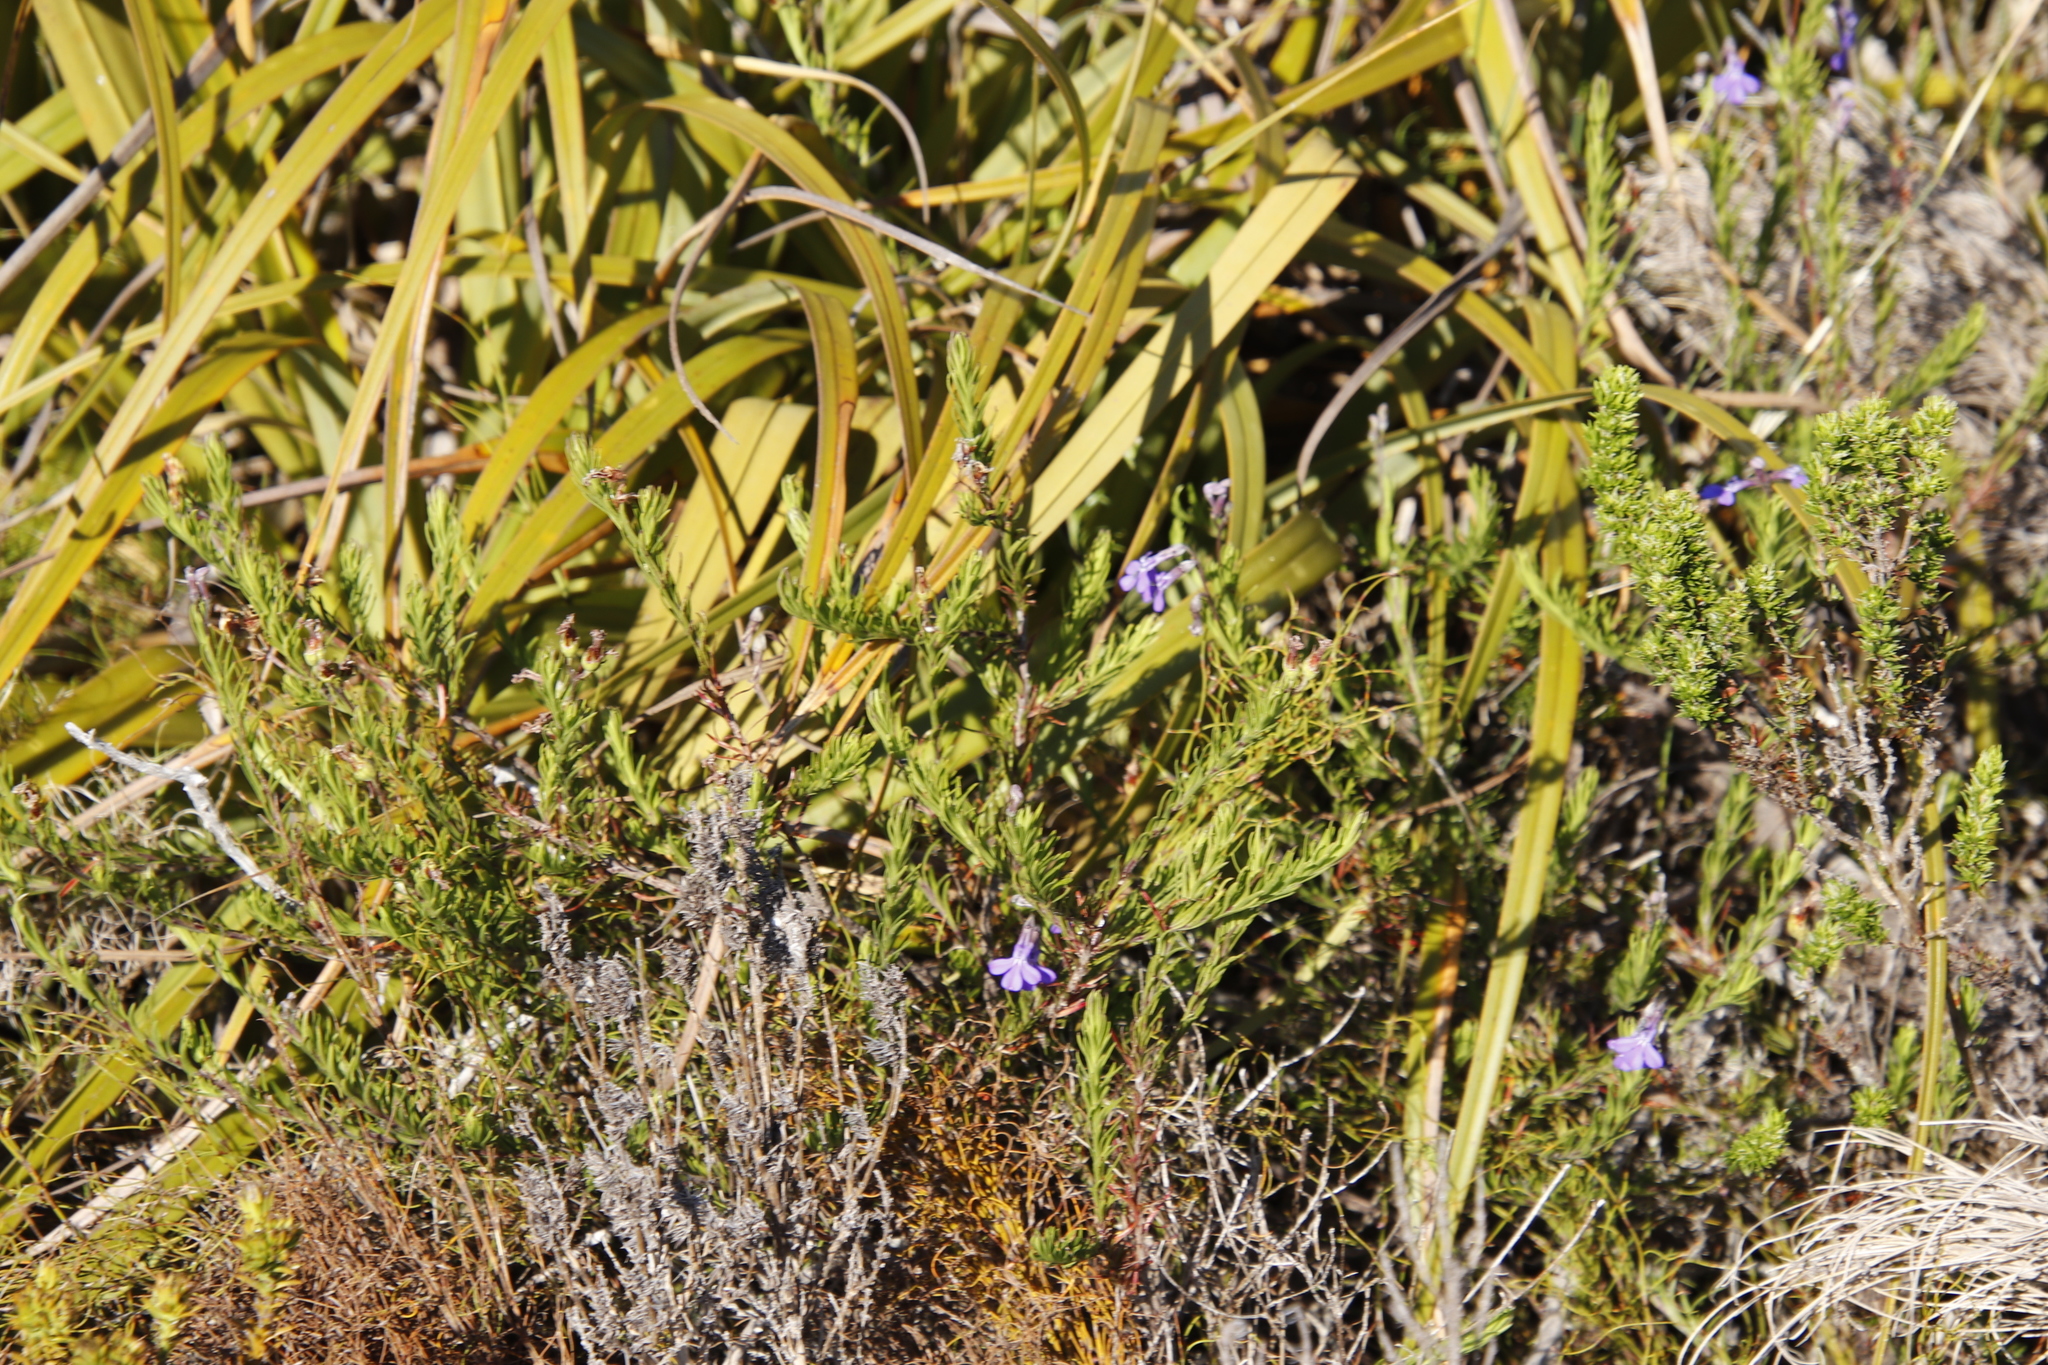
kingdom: Plantae
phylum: Tracheophyta
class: Magnoliopsida
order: Asterales
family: Campanulaceae
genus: Lobelia
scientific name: Lobelia pinifolia
